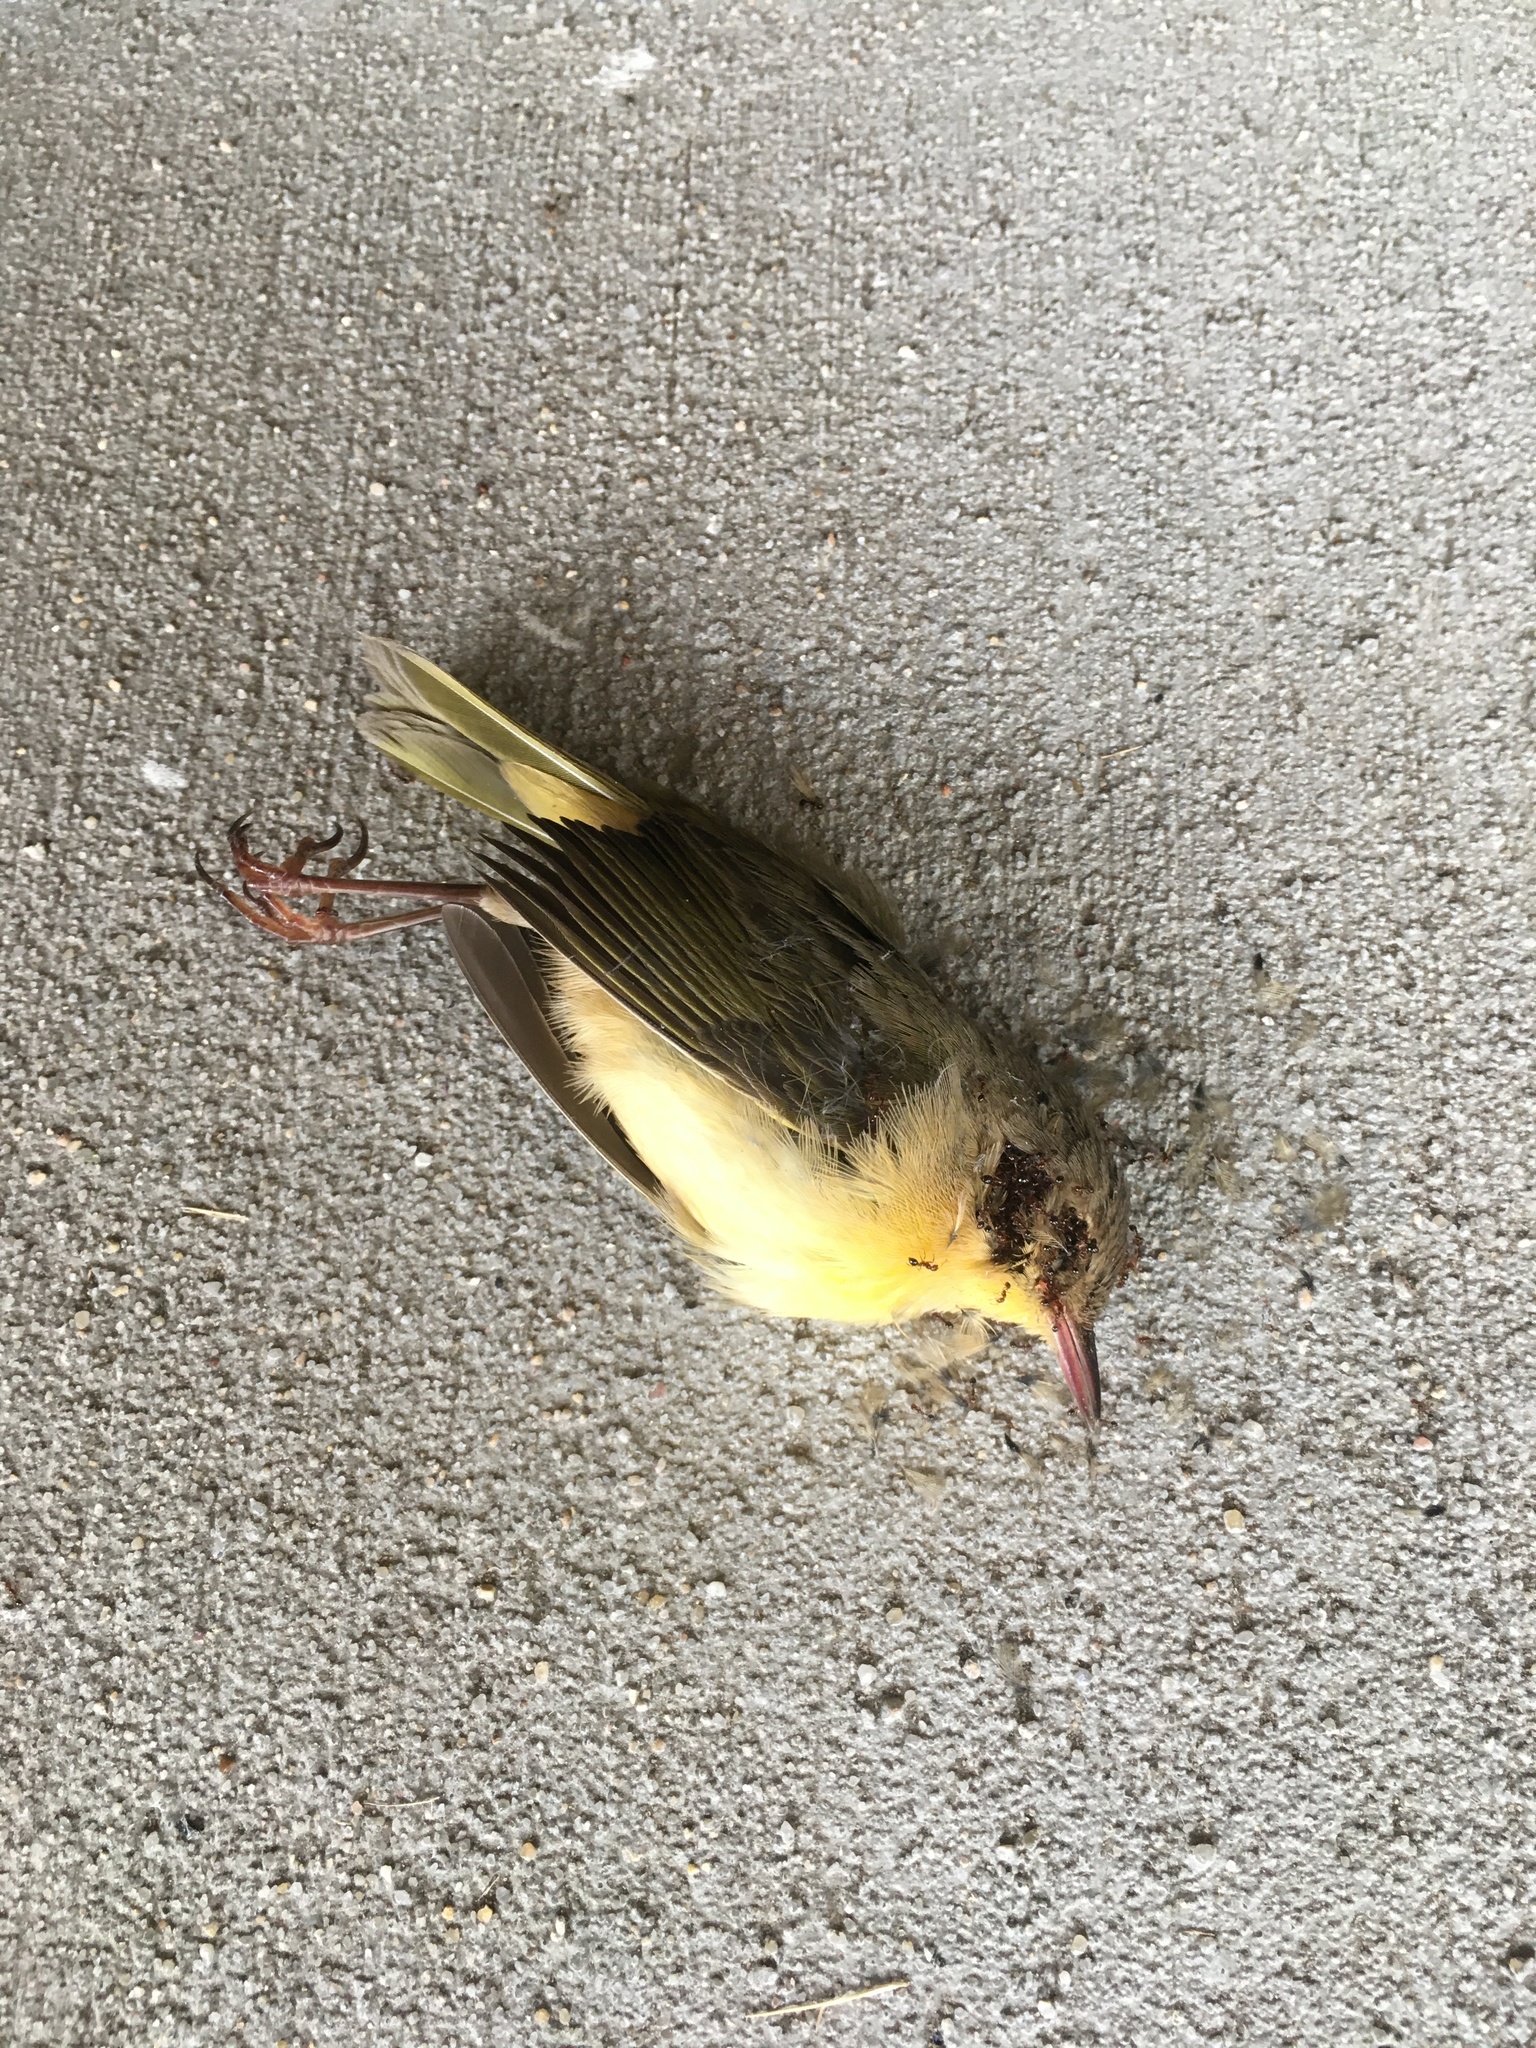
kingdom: Animalia
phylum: Chordata
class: Aves
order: Passeriformes
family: Parulidae
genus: Geothlypis
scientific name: Geothlypis trichas
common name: Common yellowthroat
